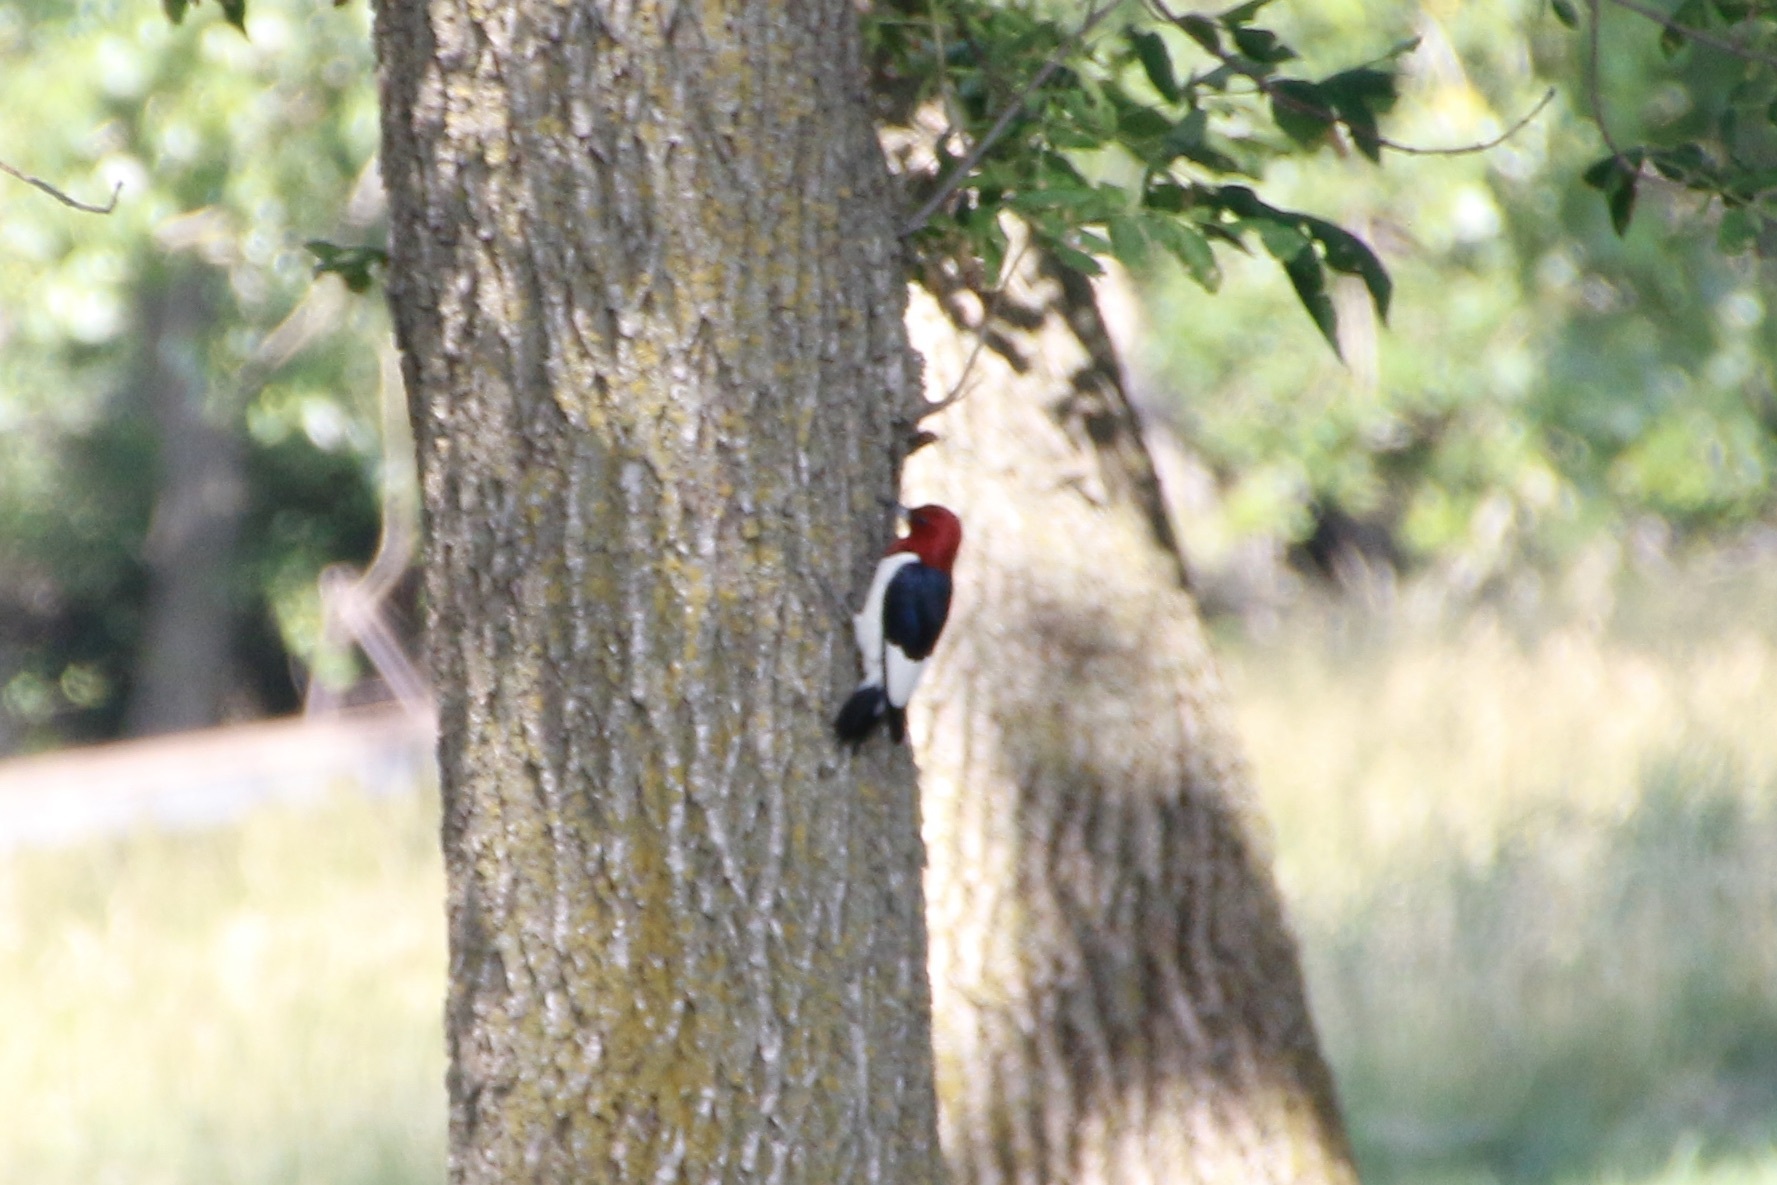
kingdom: Animalia
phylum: Chordata
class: Aves
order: Piciformes
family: Picidae
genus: Melanerpes
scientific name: Melanerpes erythrocephalus
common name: Red-headed woodpecker
